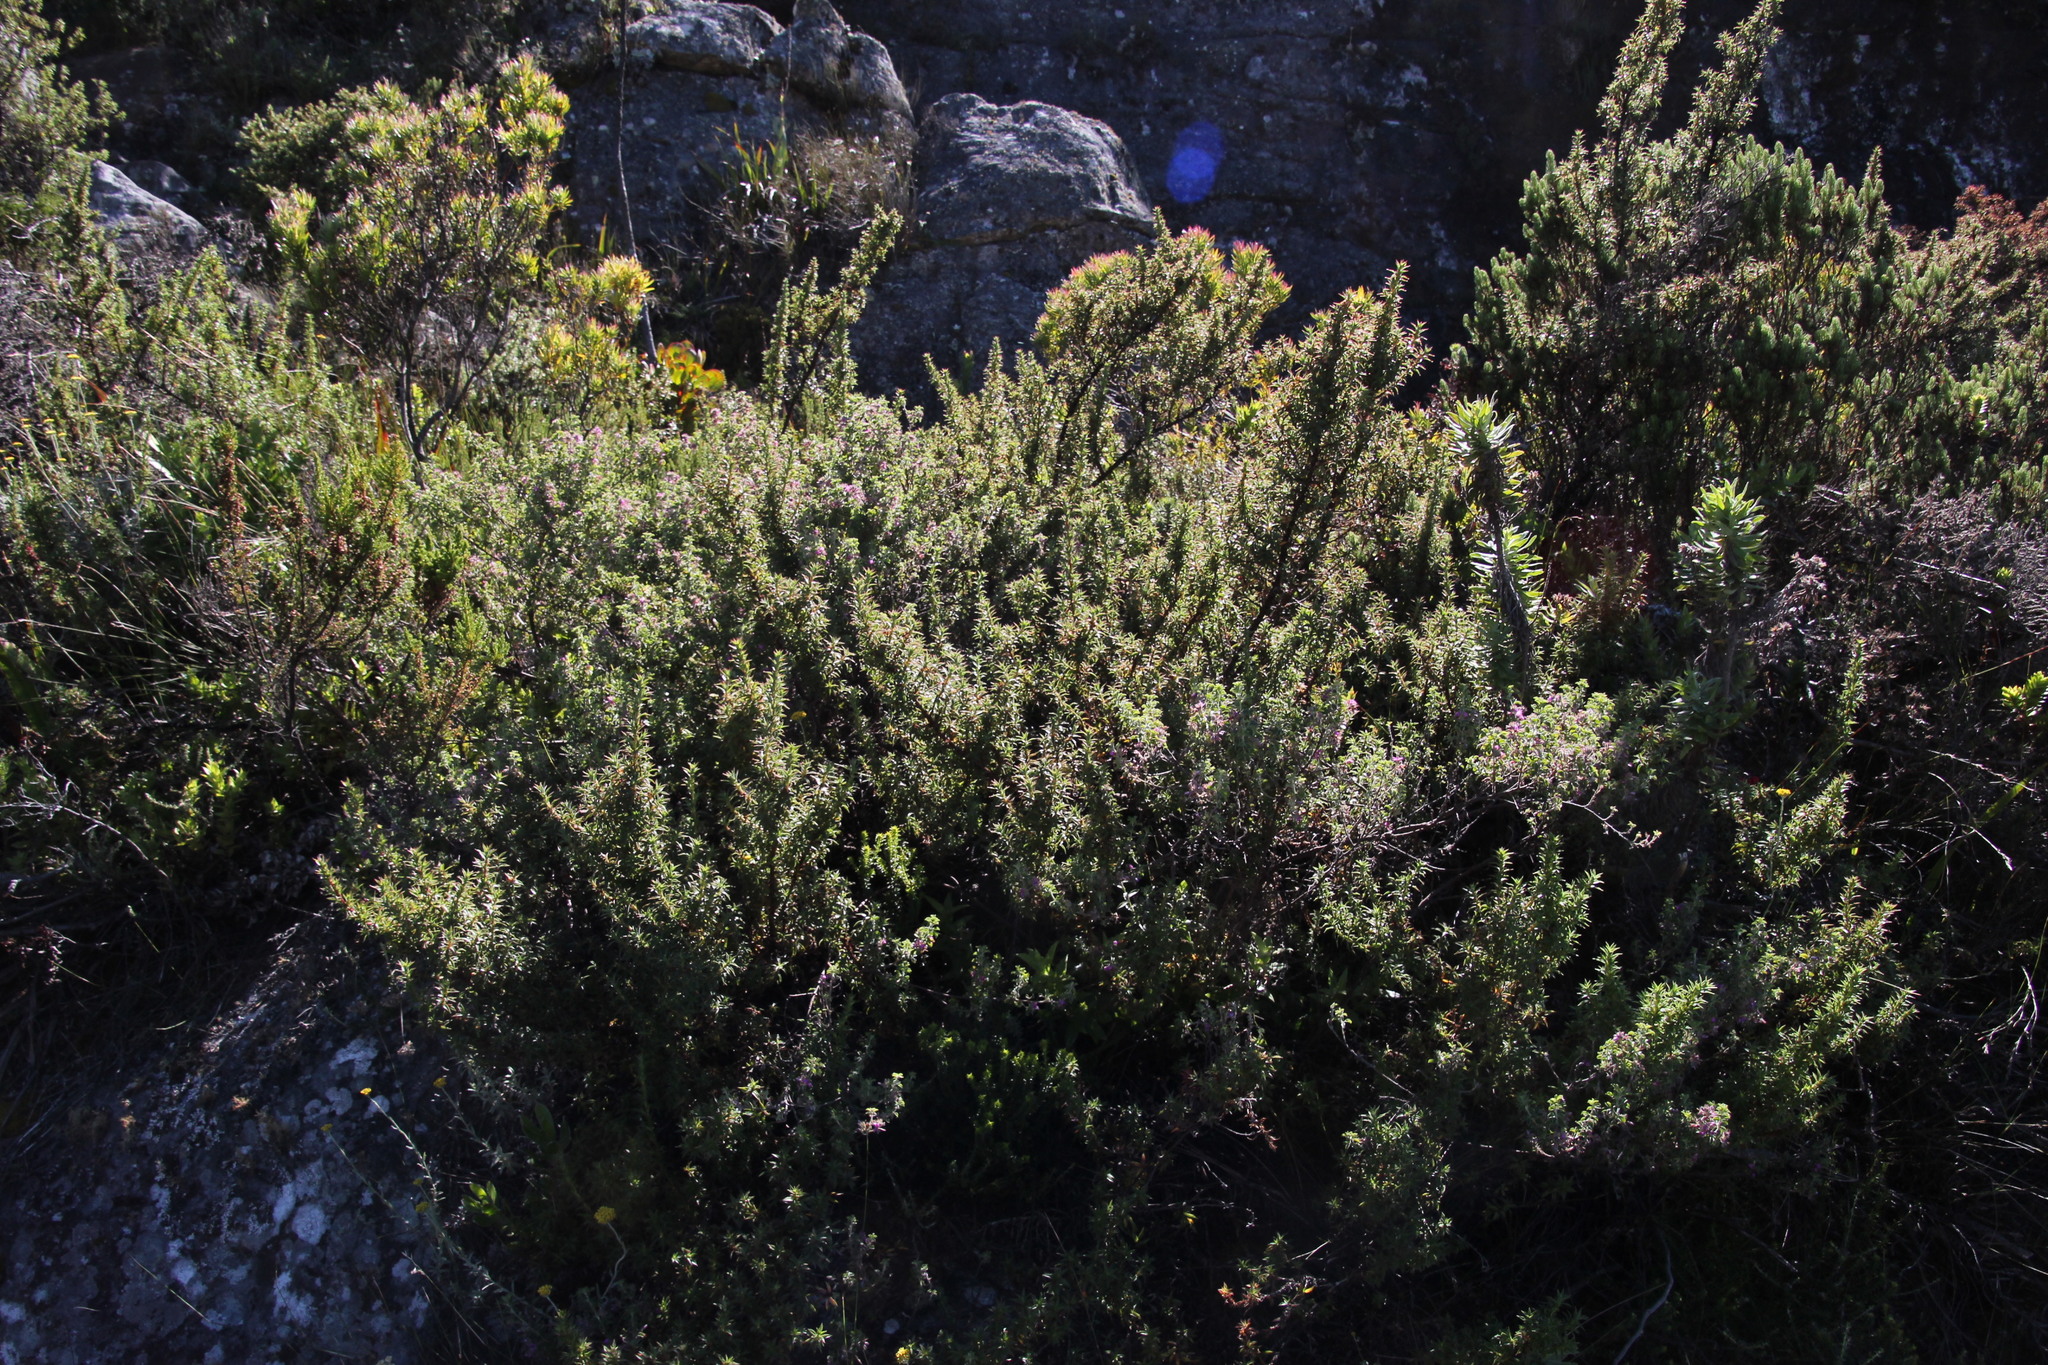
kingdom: Plantae
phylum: Tracheophyta
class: Magnoliopsida
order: Fabales
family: Fabaceae
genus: Indigofera
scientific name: Indigofera candolleana
